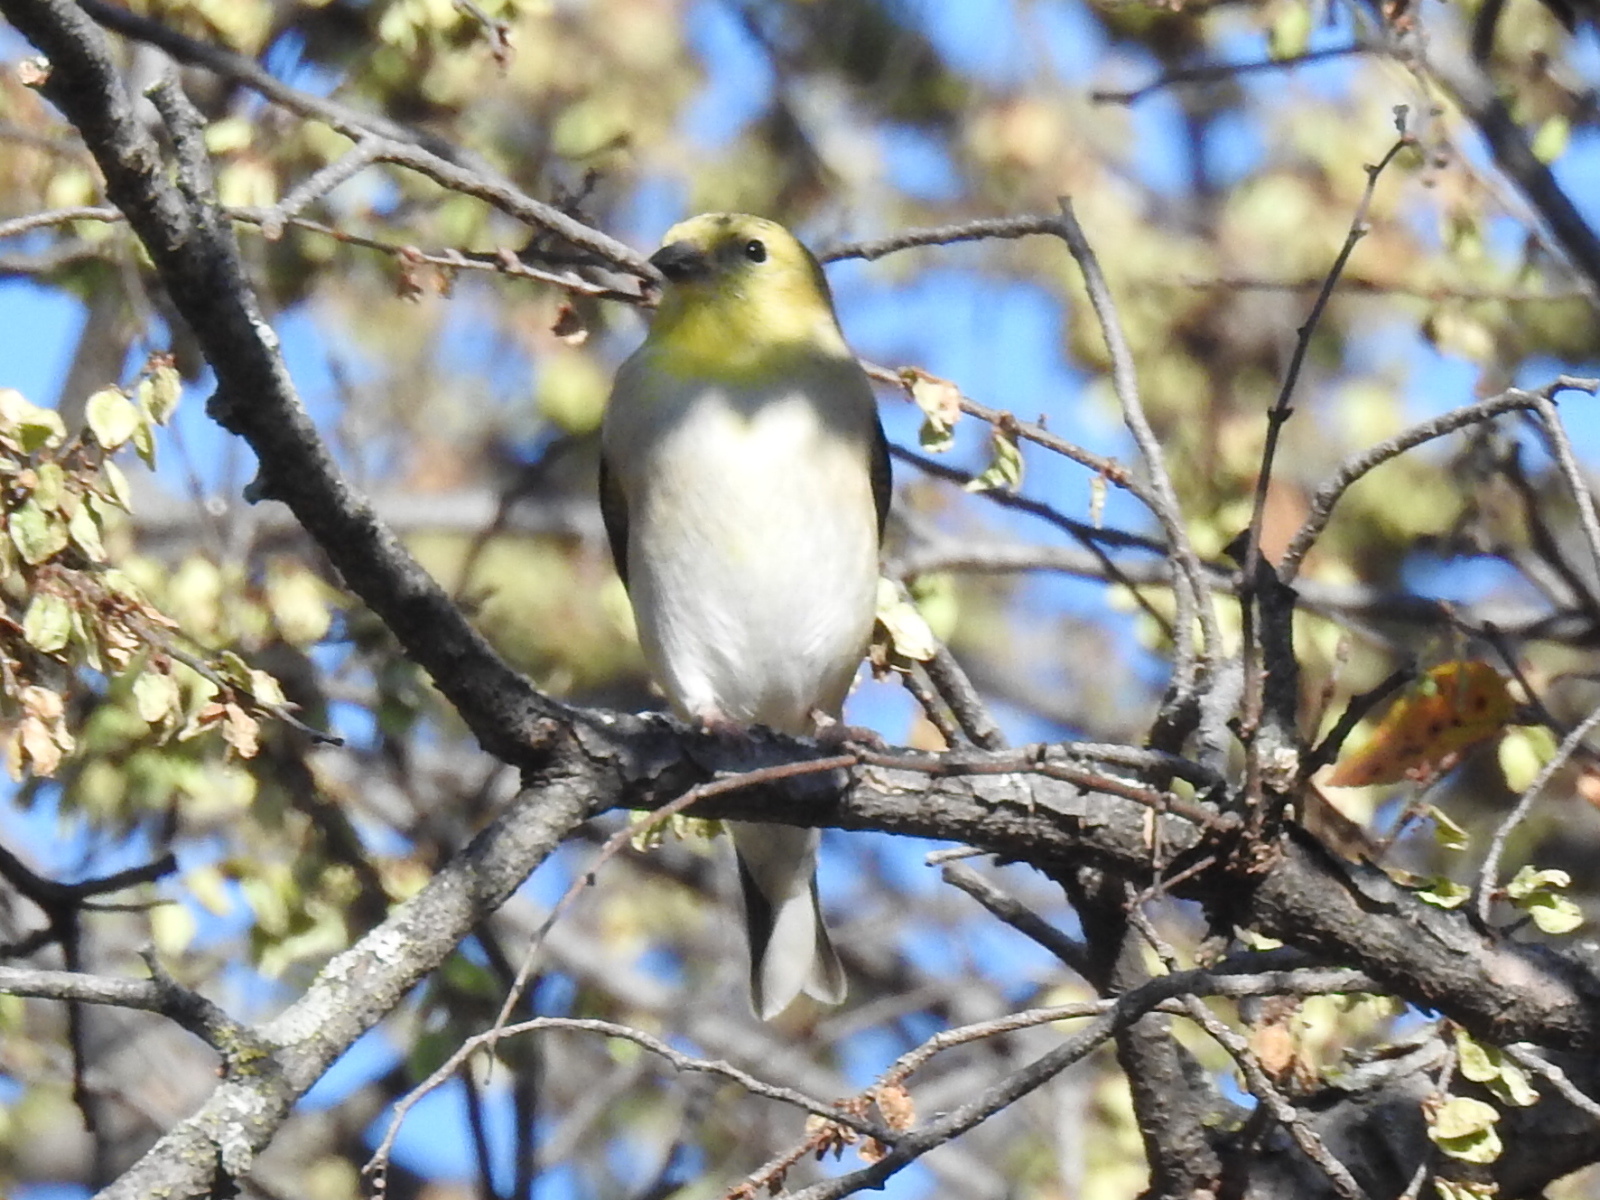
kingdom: Animalia
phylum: Chordata
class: Aves
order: Passeriformes
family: Fringillidae
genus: Spinus
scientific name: Spinus tristis
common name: American goldfinch
